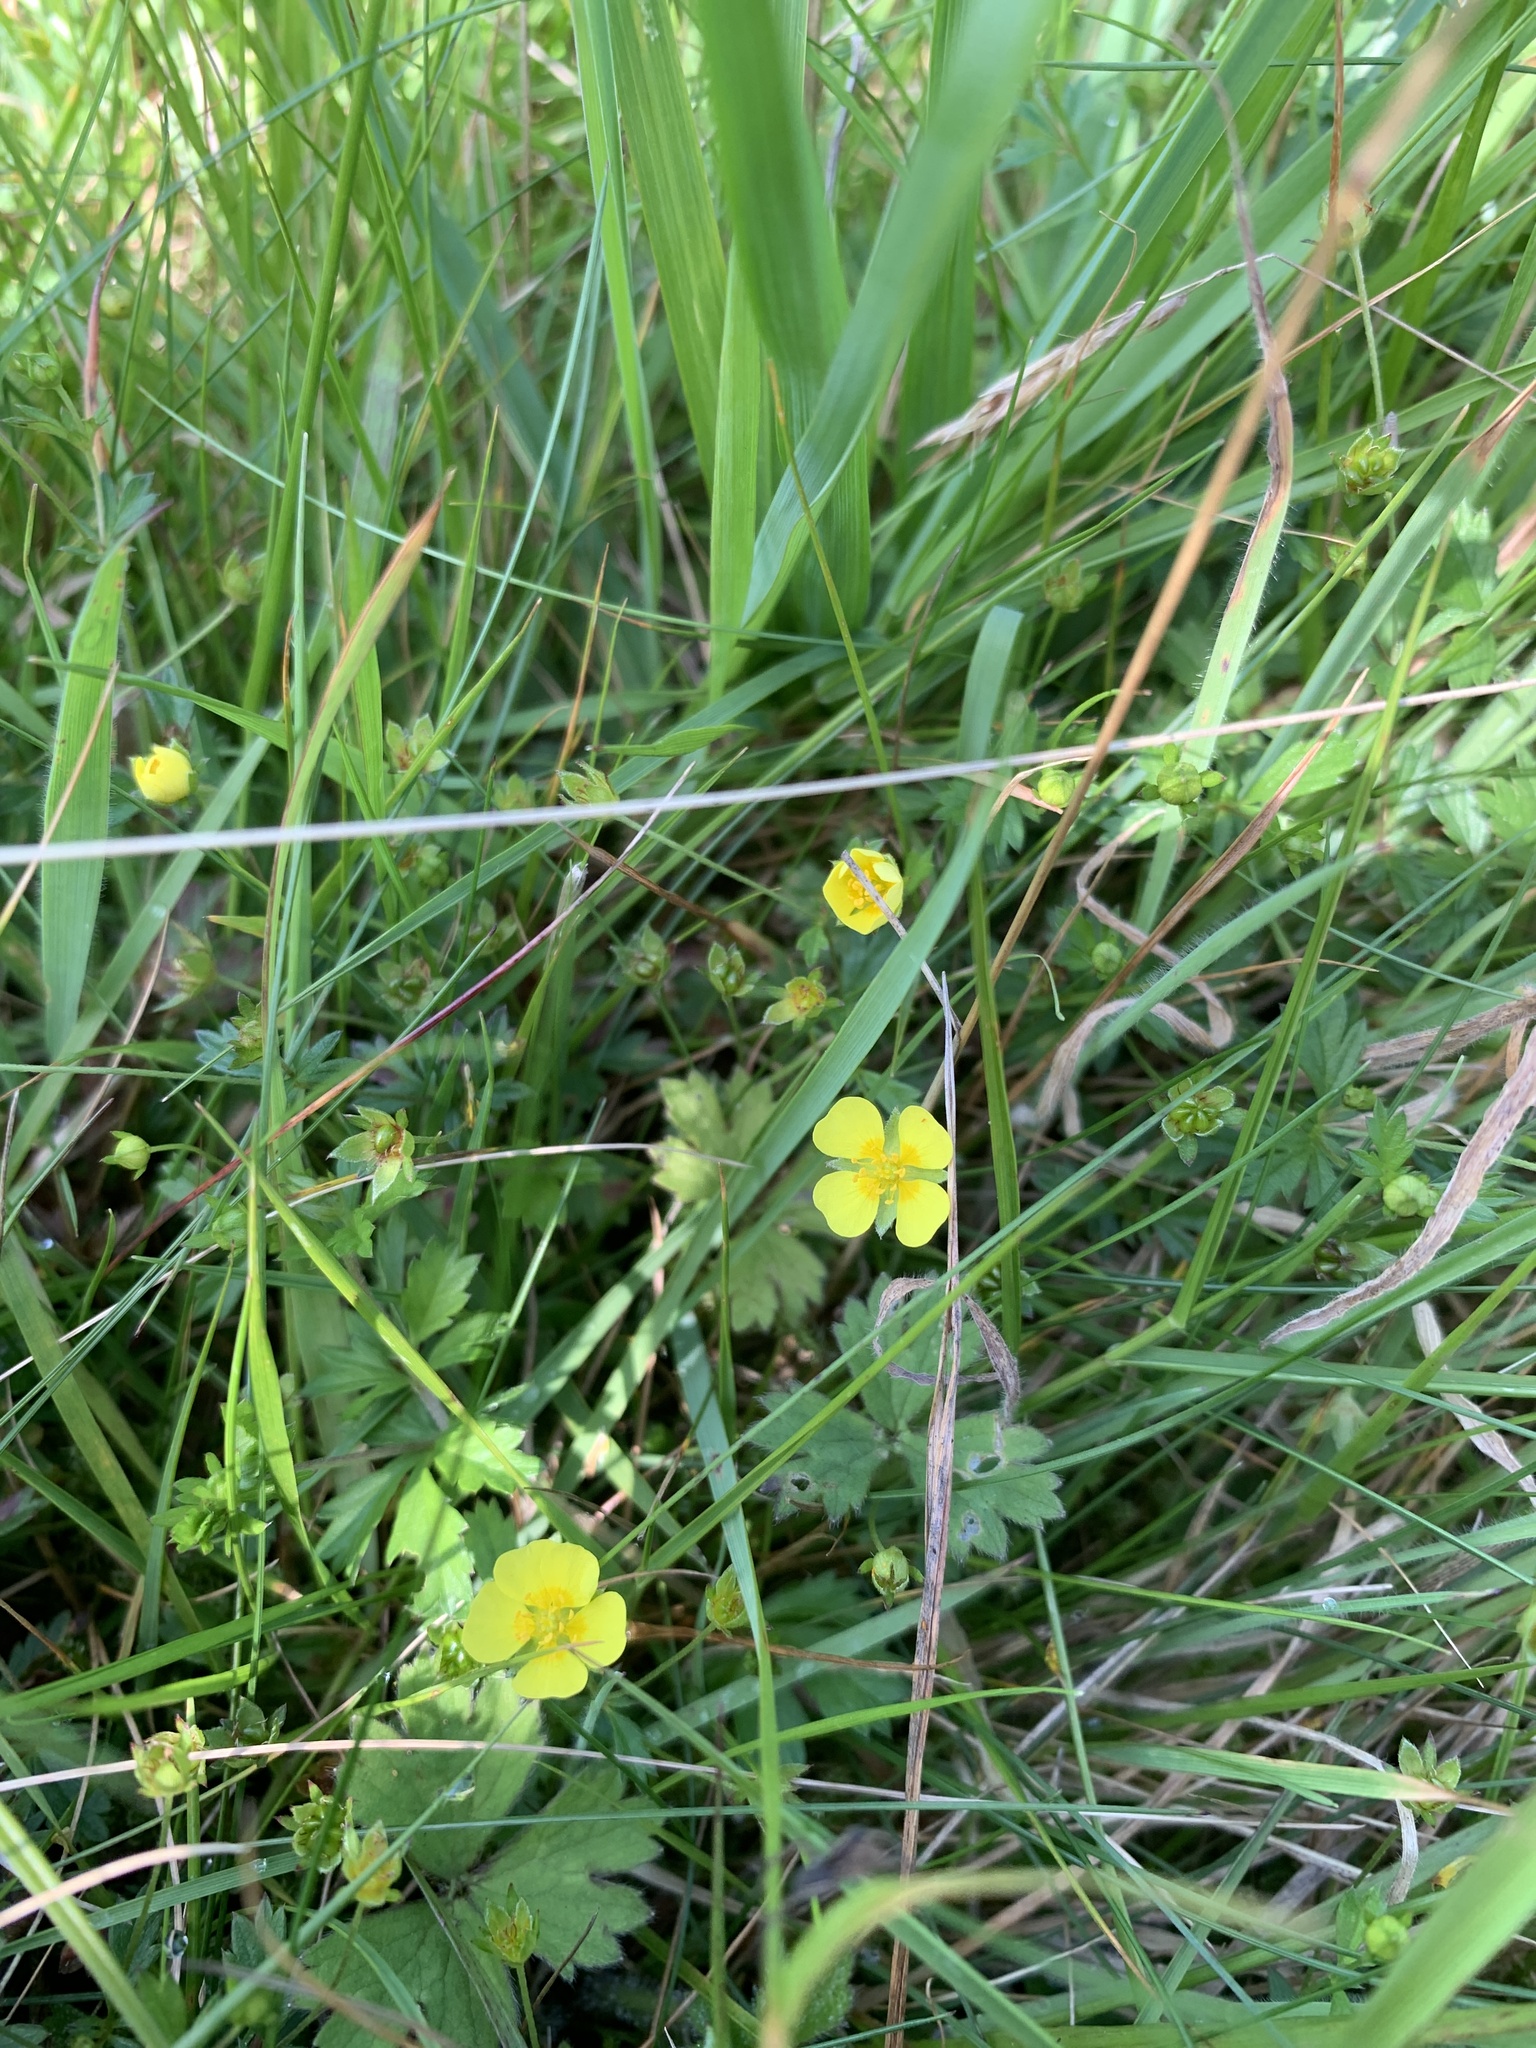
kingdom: Plantae
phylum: Tracheophyta
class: Magnoliopsida
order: Rosales
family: Rosaceae
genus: Potentilla
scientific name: Potentilla reptans
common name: Creeping cinquefoil
